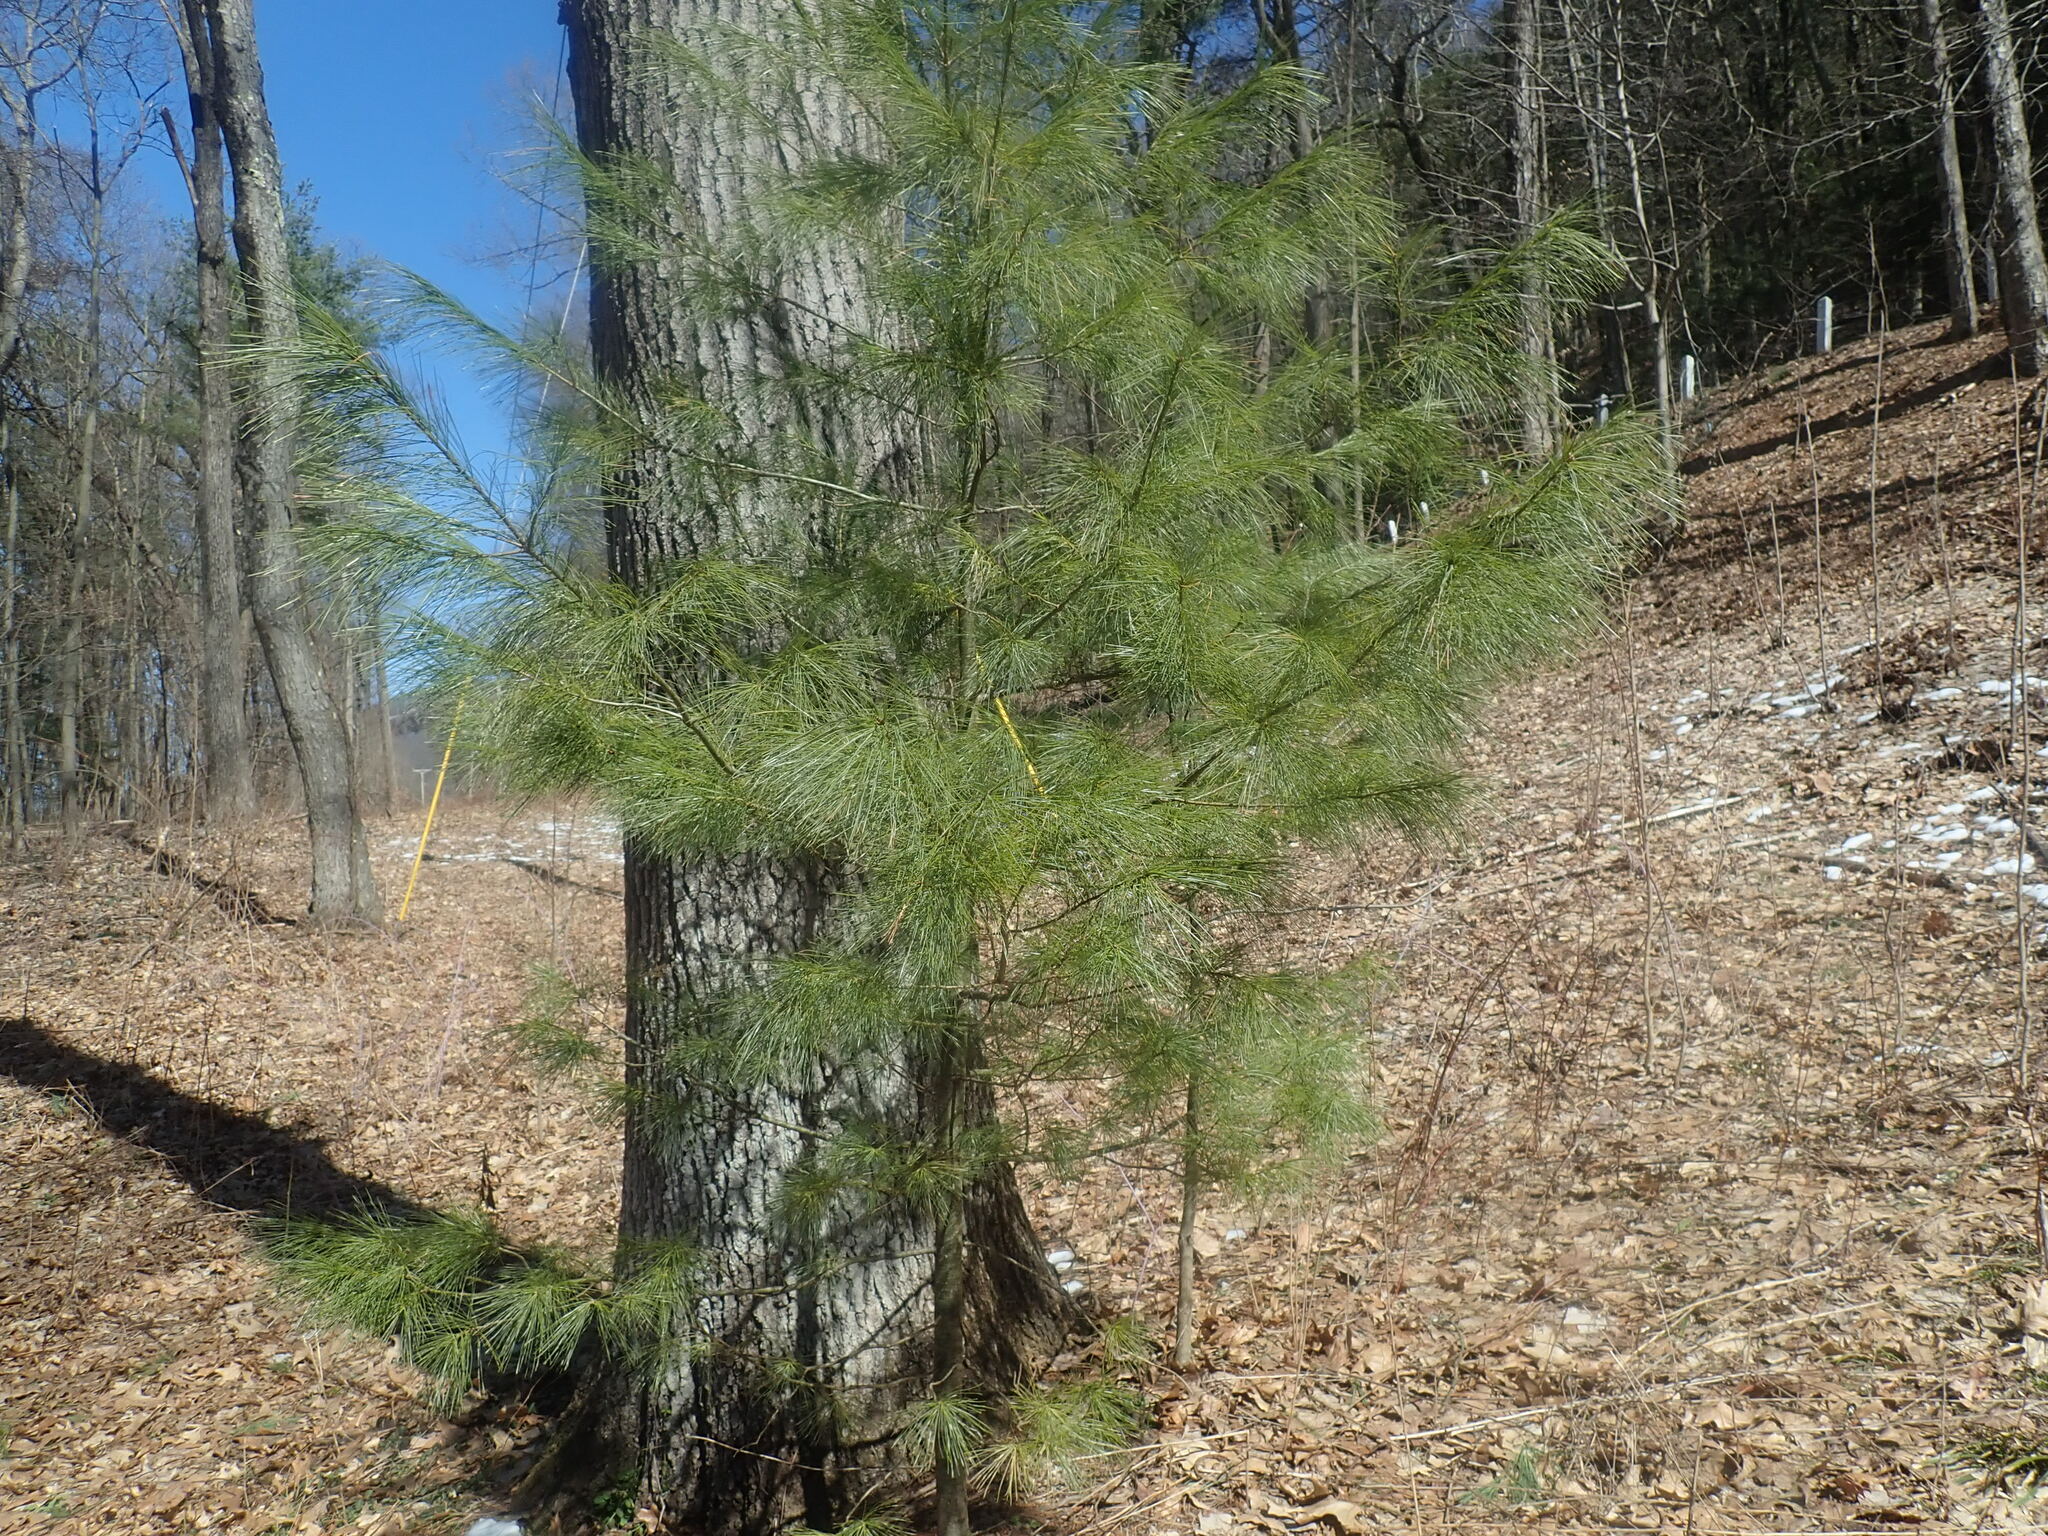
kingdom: Plantae
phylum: Tracheophyta
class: Pinopsida
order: Pinales
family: Pinaceae
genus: Pinus
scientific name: Pinus strobus
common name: Weymouth pine
